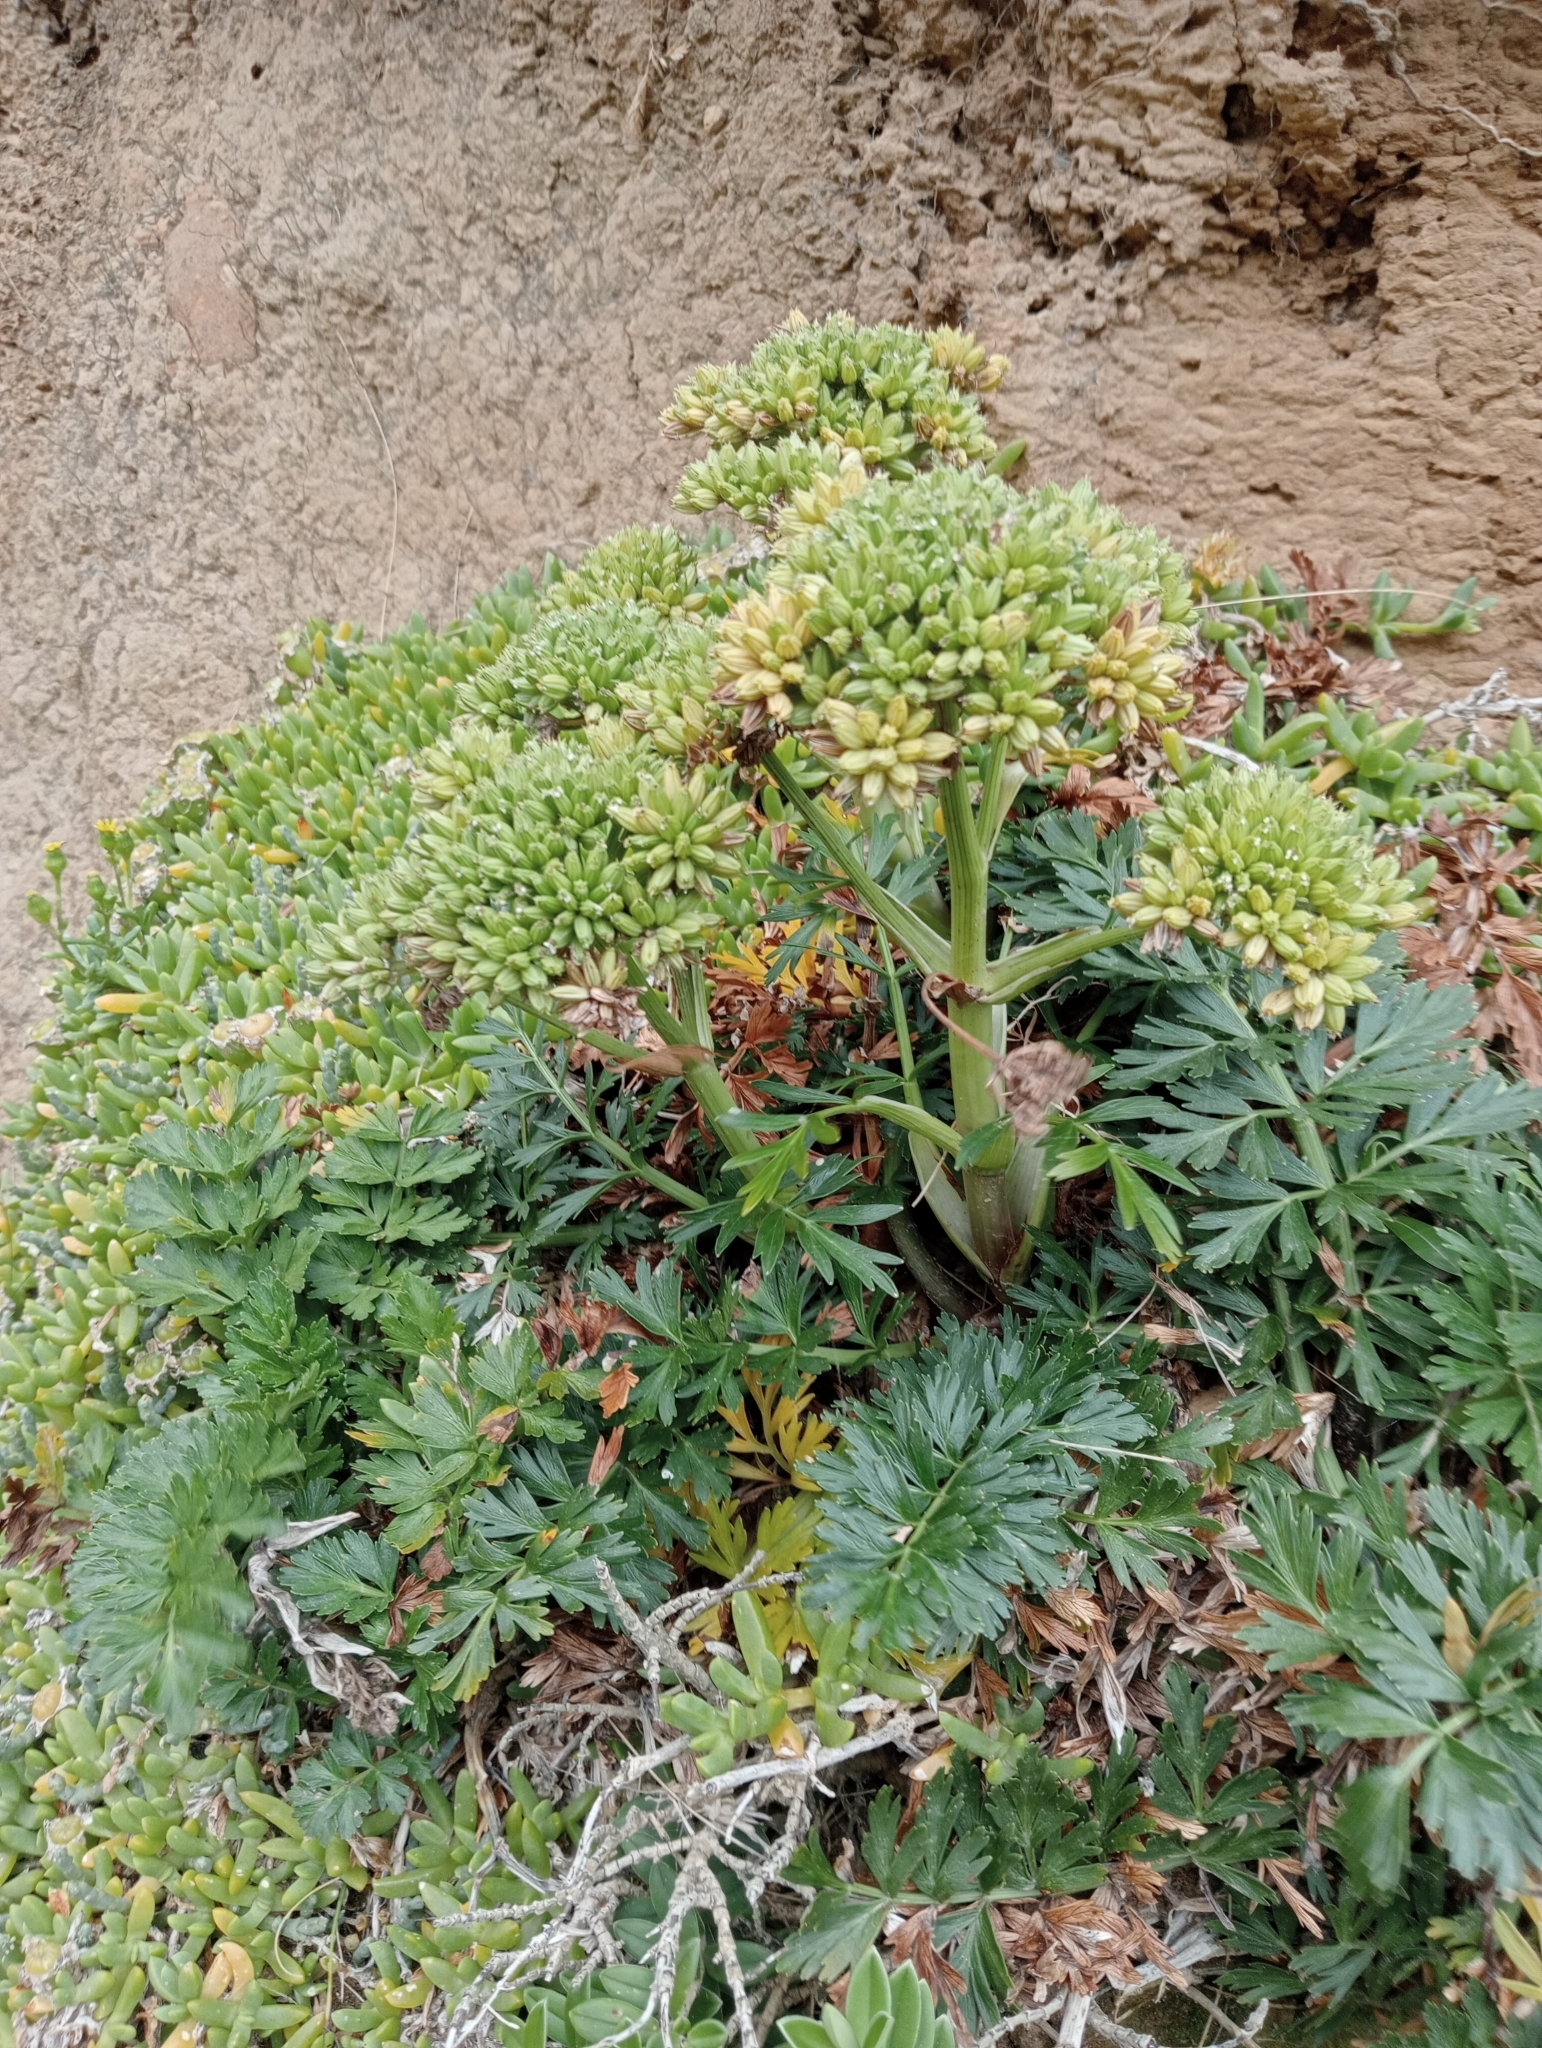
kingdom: Plantae
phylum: Tracheophyta
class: Magnoliopsida
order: Apiales
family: Apiaceae
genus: Anisotome
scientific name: Anisotome lyallii
